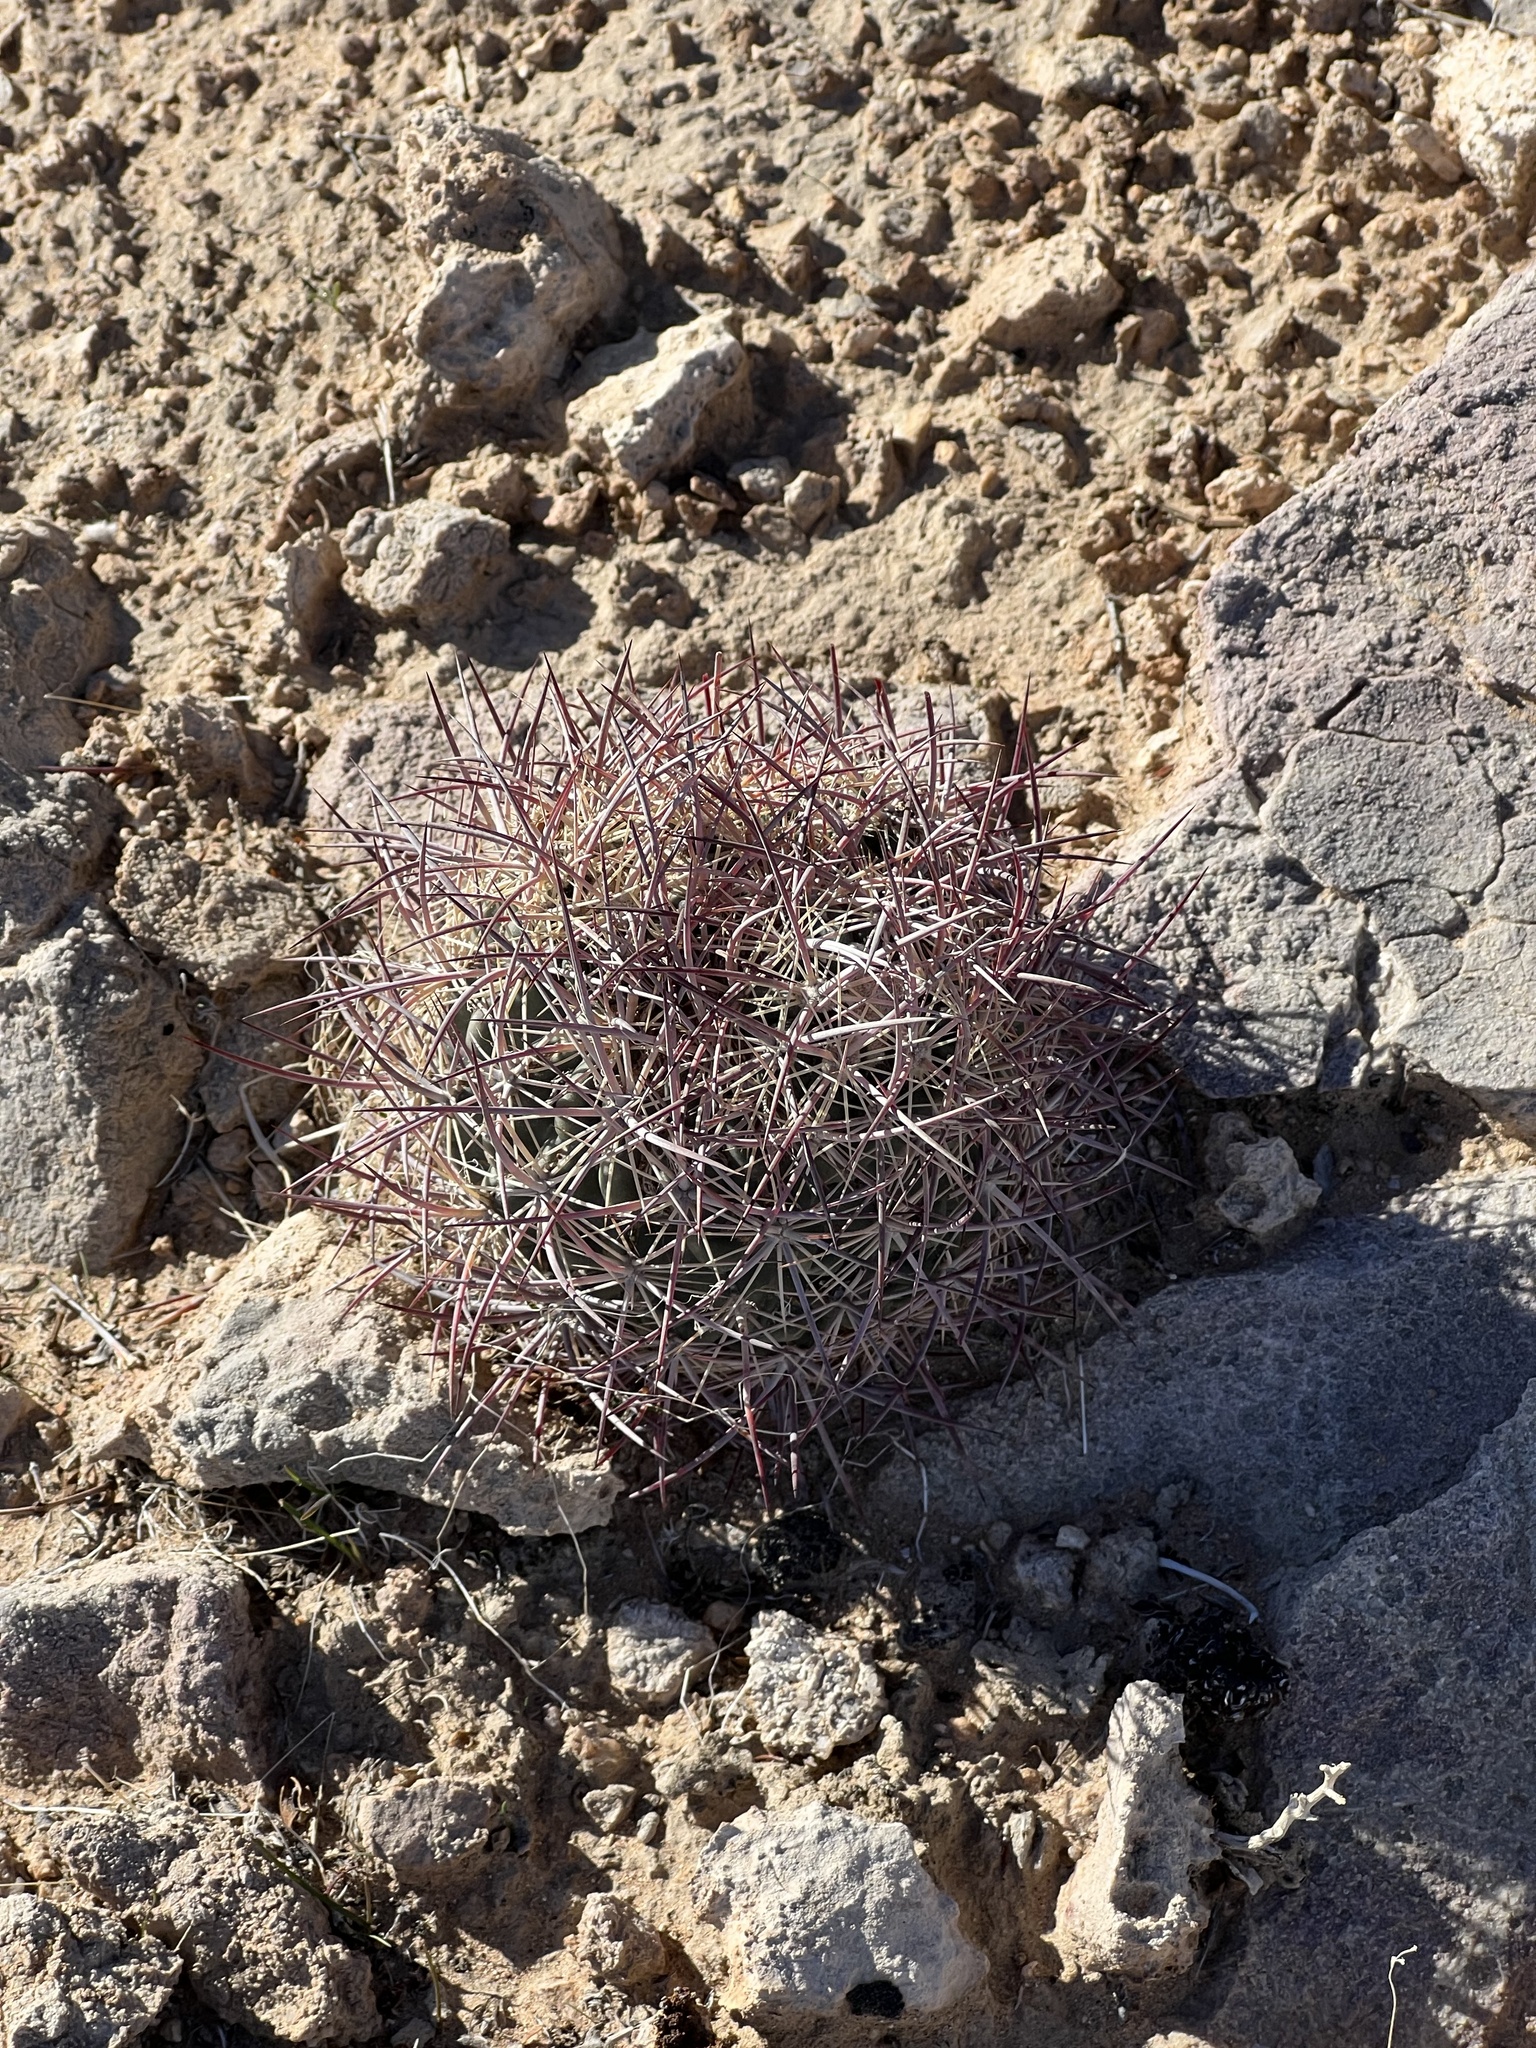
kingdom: Plantae
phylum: Tracheophyta
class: Magnoliopsida
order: Caryophyllales
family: Cactaceae
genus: Sclerocactus
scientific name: Sclerocactus johnsonii
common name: Eight-spine fishhook cactus
